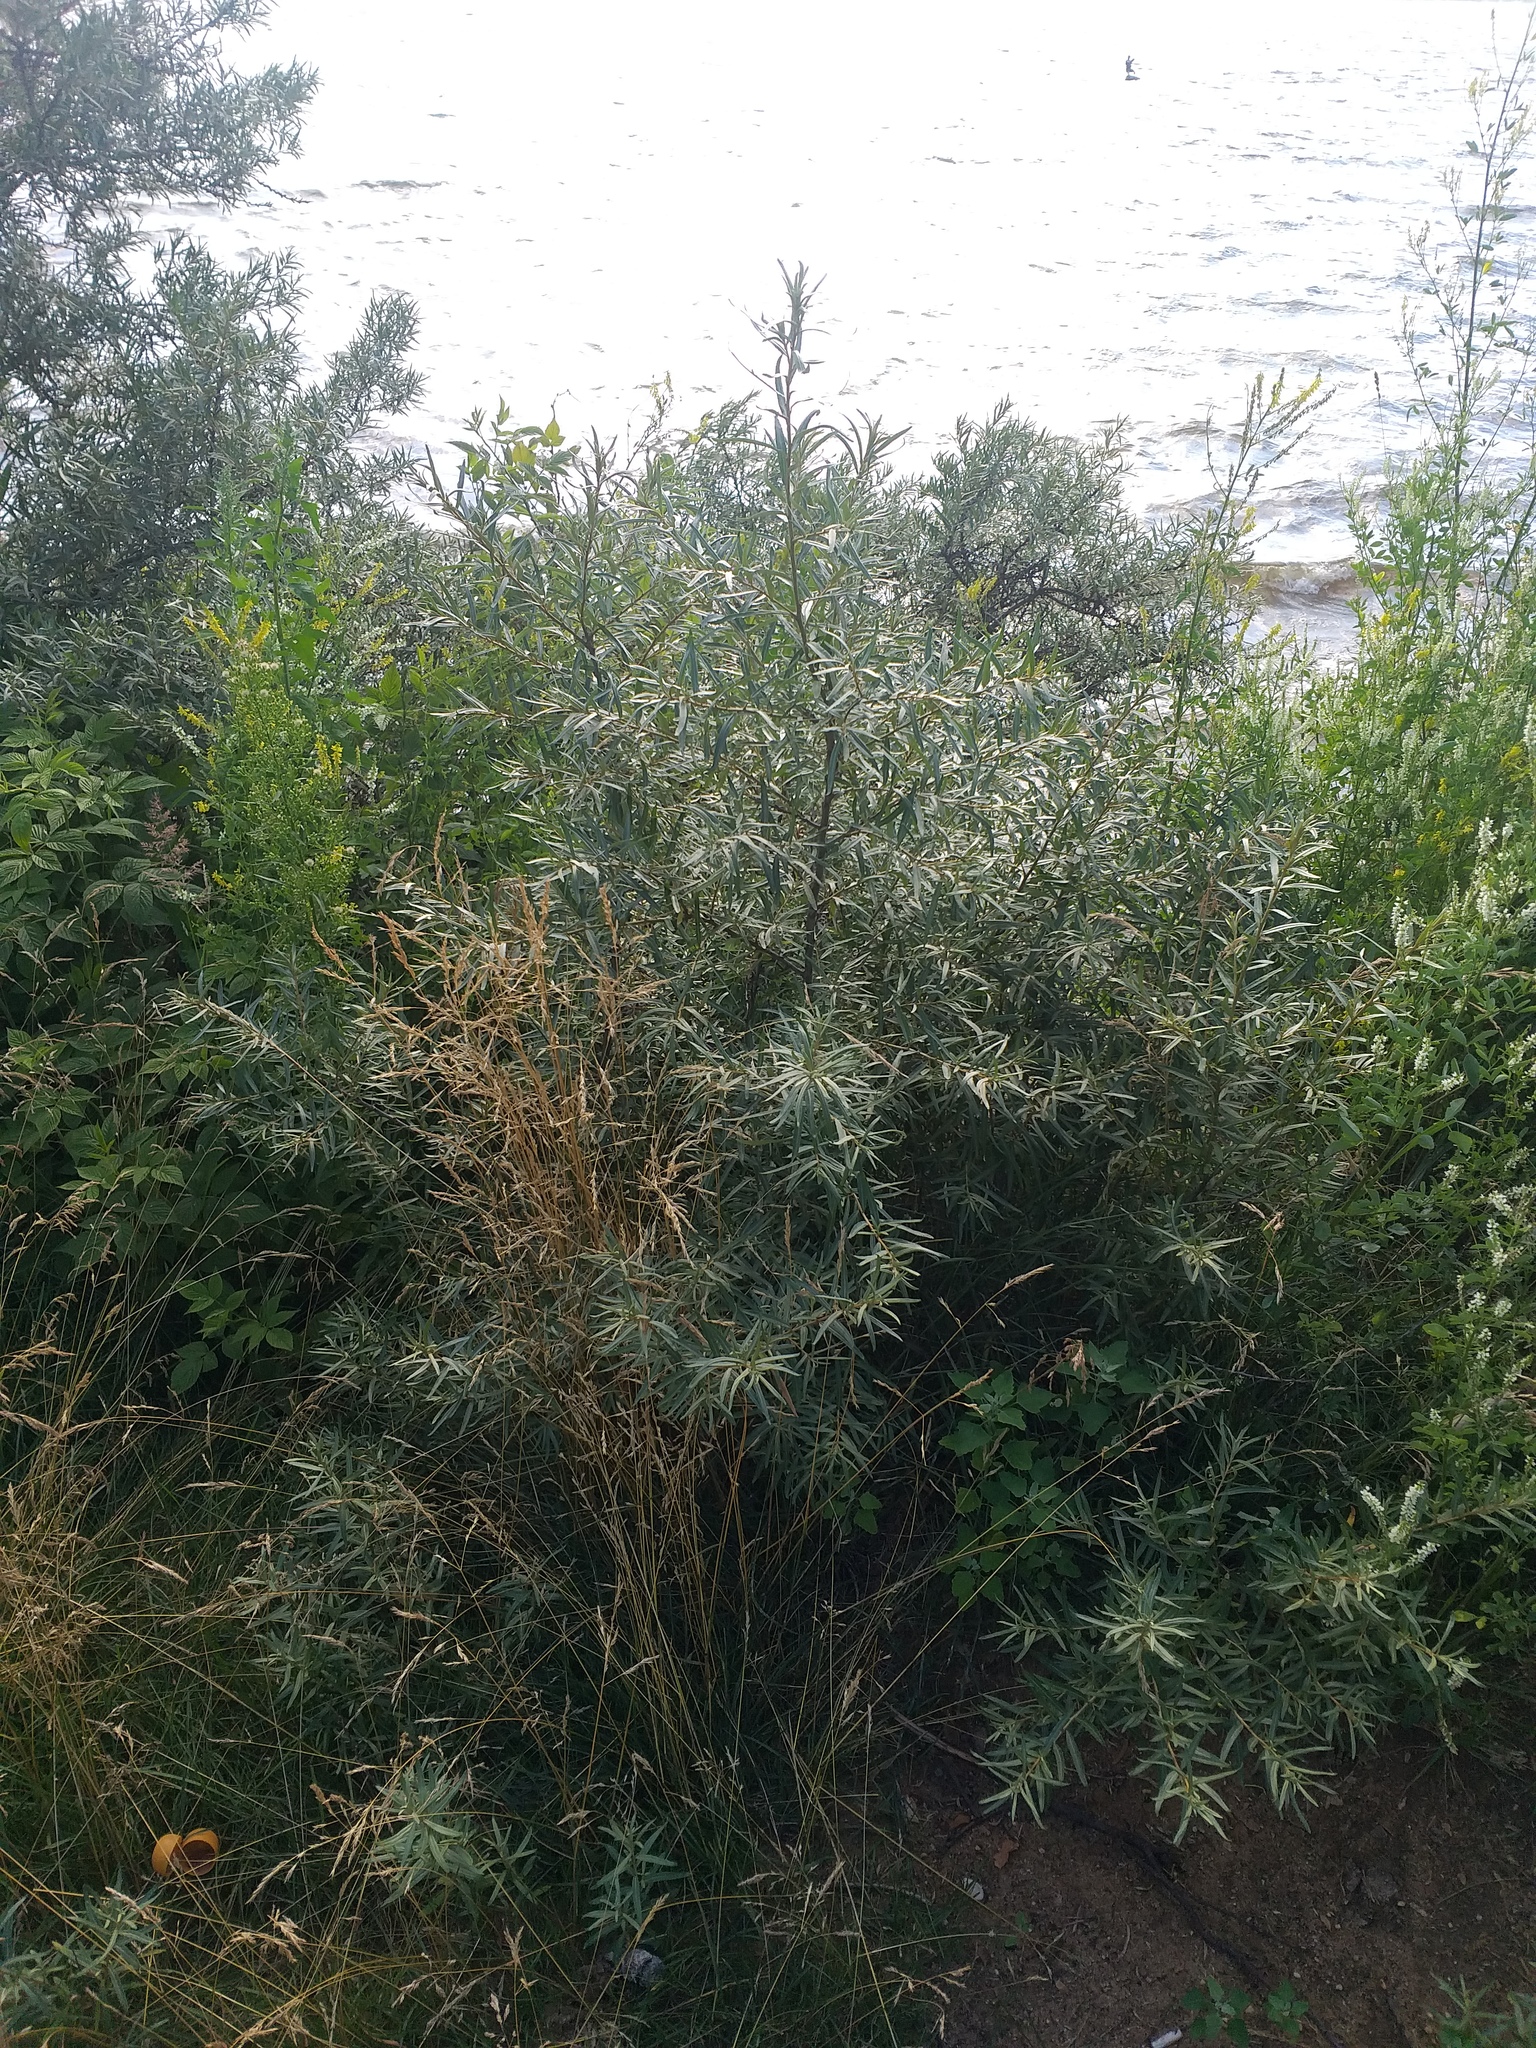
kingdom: Plantae
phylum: Tracheophyta
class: Magnoliopsida
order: Rosales
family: Elaeagnaceae
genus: Hippophae
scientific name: Hippophae rhamnoides
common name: Sea-buckthorn
